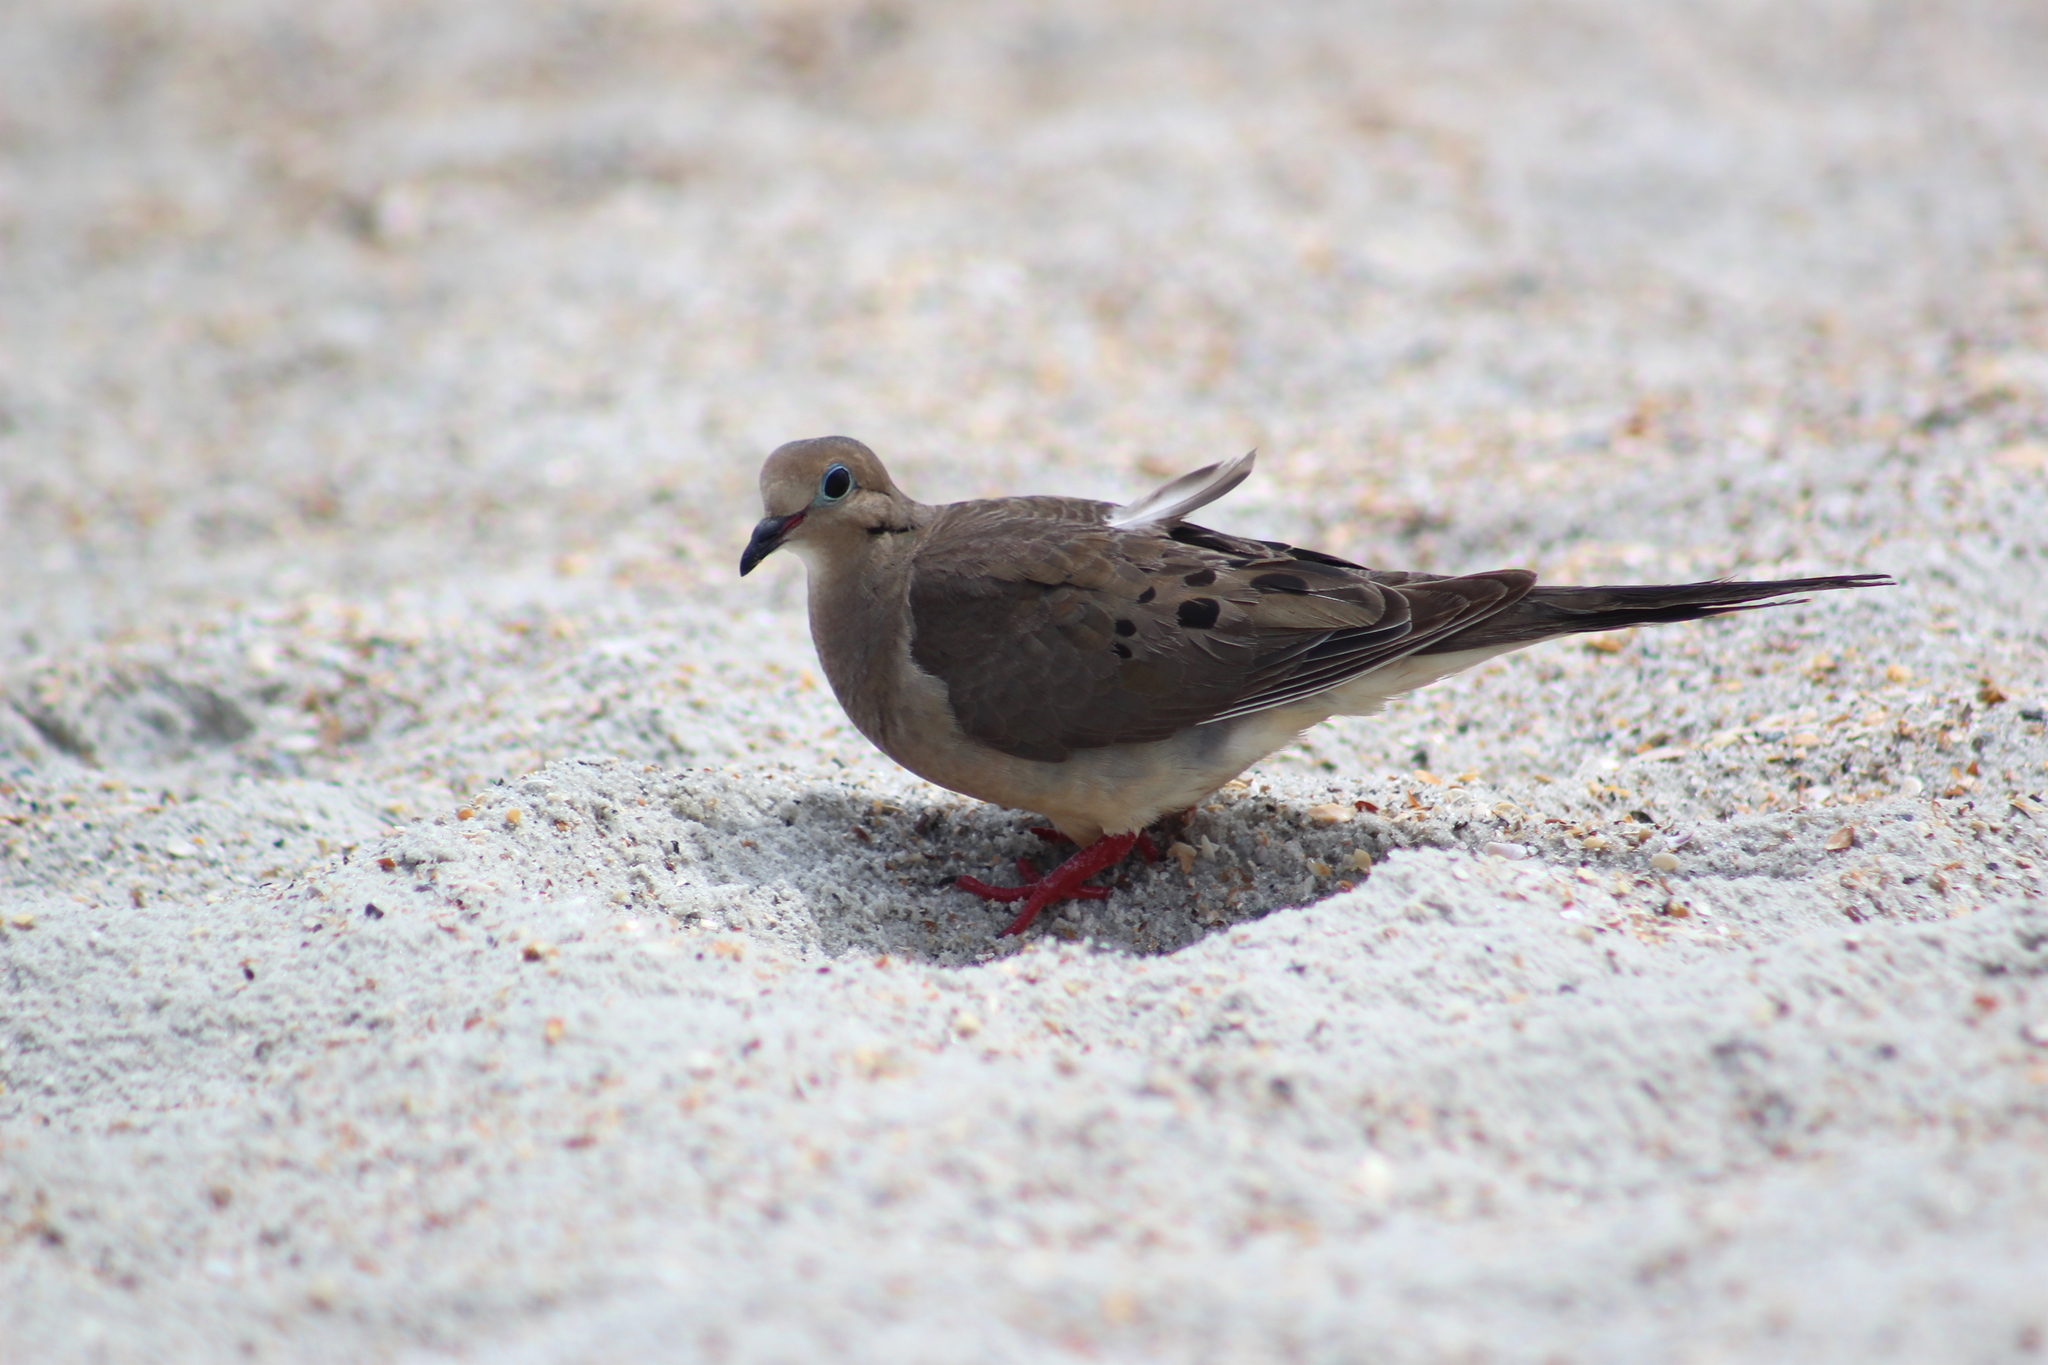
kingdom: Animalia
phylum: Chordata
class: Aves
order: Columbiformes
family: Columbidae
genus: Zenaida
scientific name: Zenaida macroura
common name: Mourning dove
